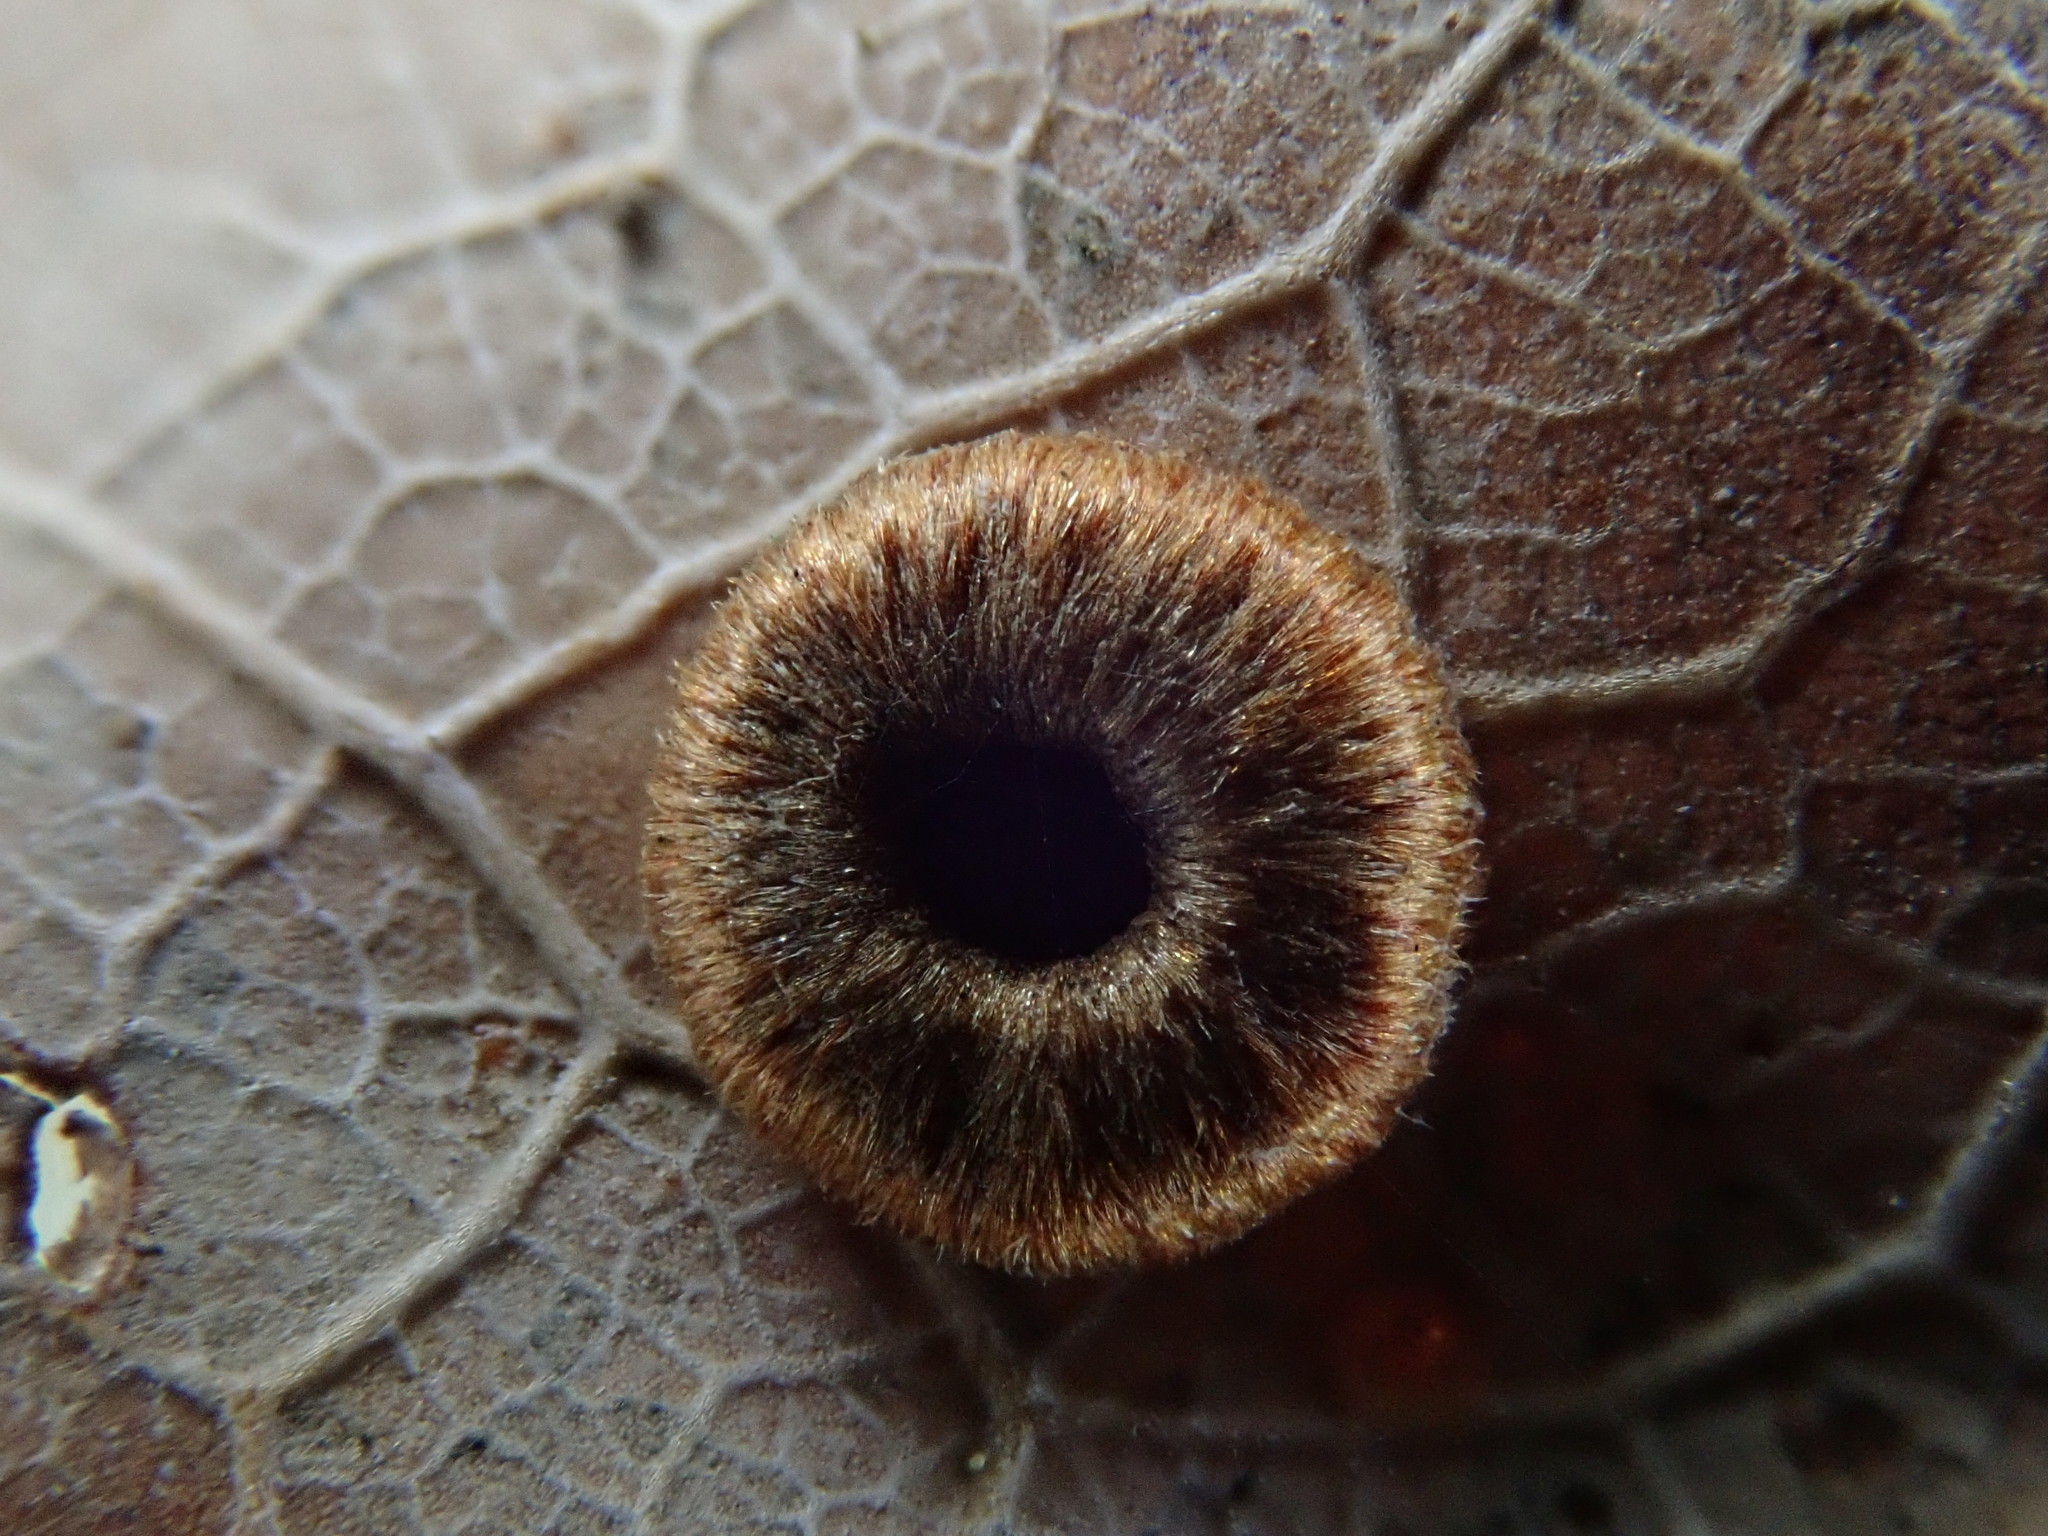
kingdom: Animalia
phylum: Arthropoda
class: Insecta
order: Hymenoptera
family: Cynipidae
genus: Neuroterus
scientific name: Neuroterus numismalis
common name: Silk-button spangle gall
